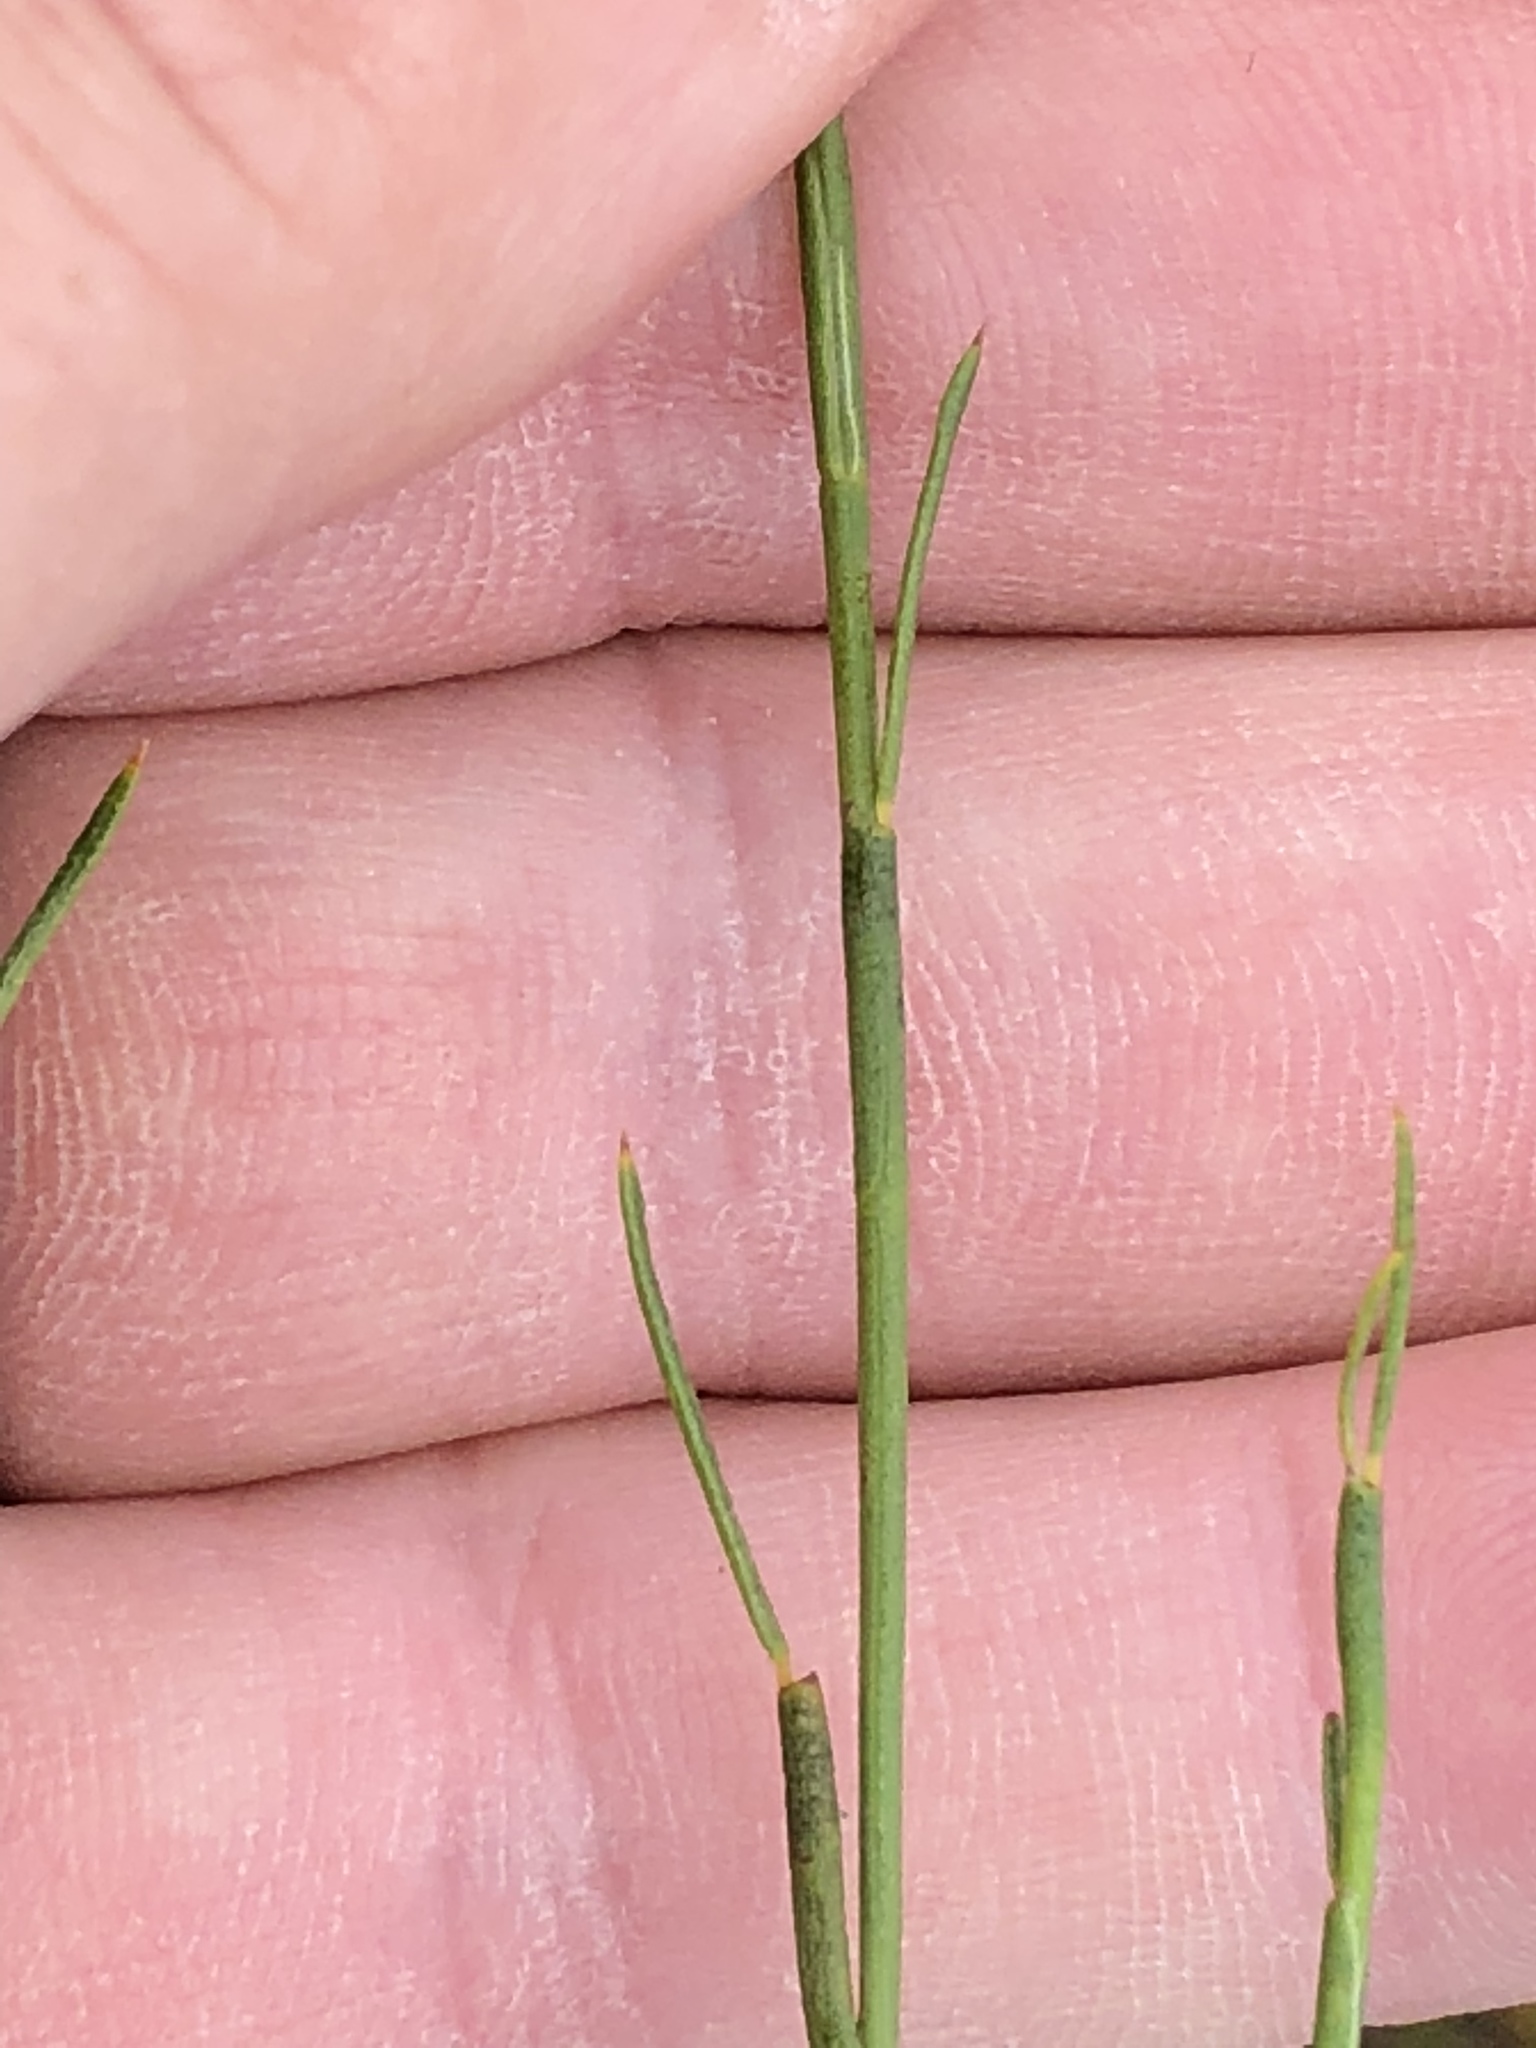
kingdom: Plantae
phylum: Tracheophyta
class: Magnoliopsida
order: Fabales
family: Fabaceae
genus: Psoralea
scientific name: Psoralea restioides
